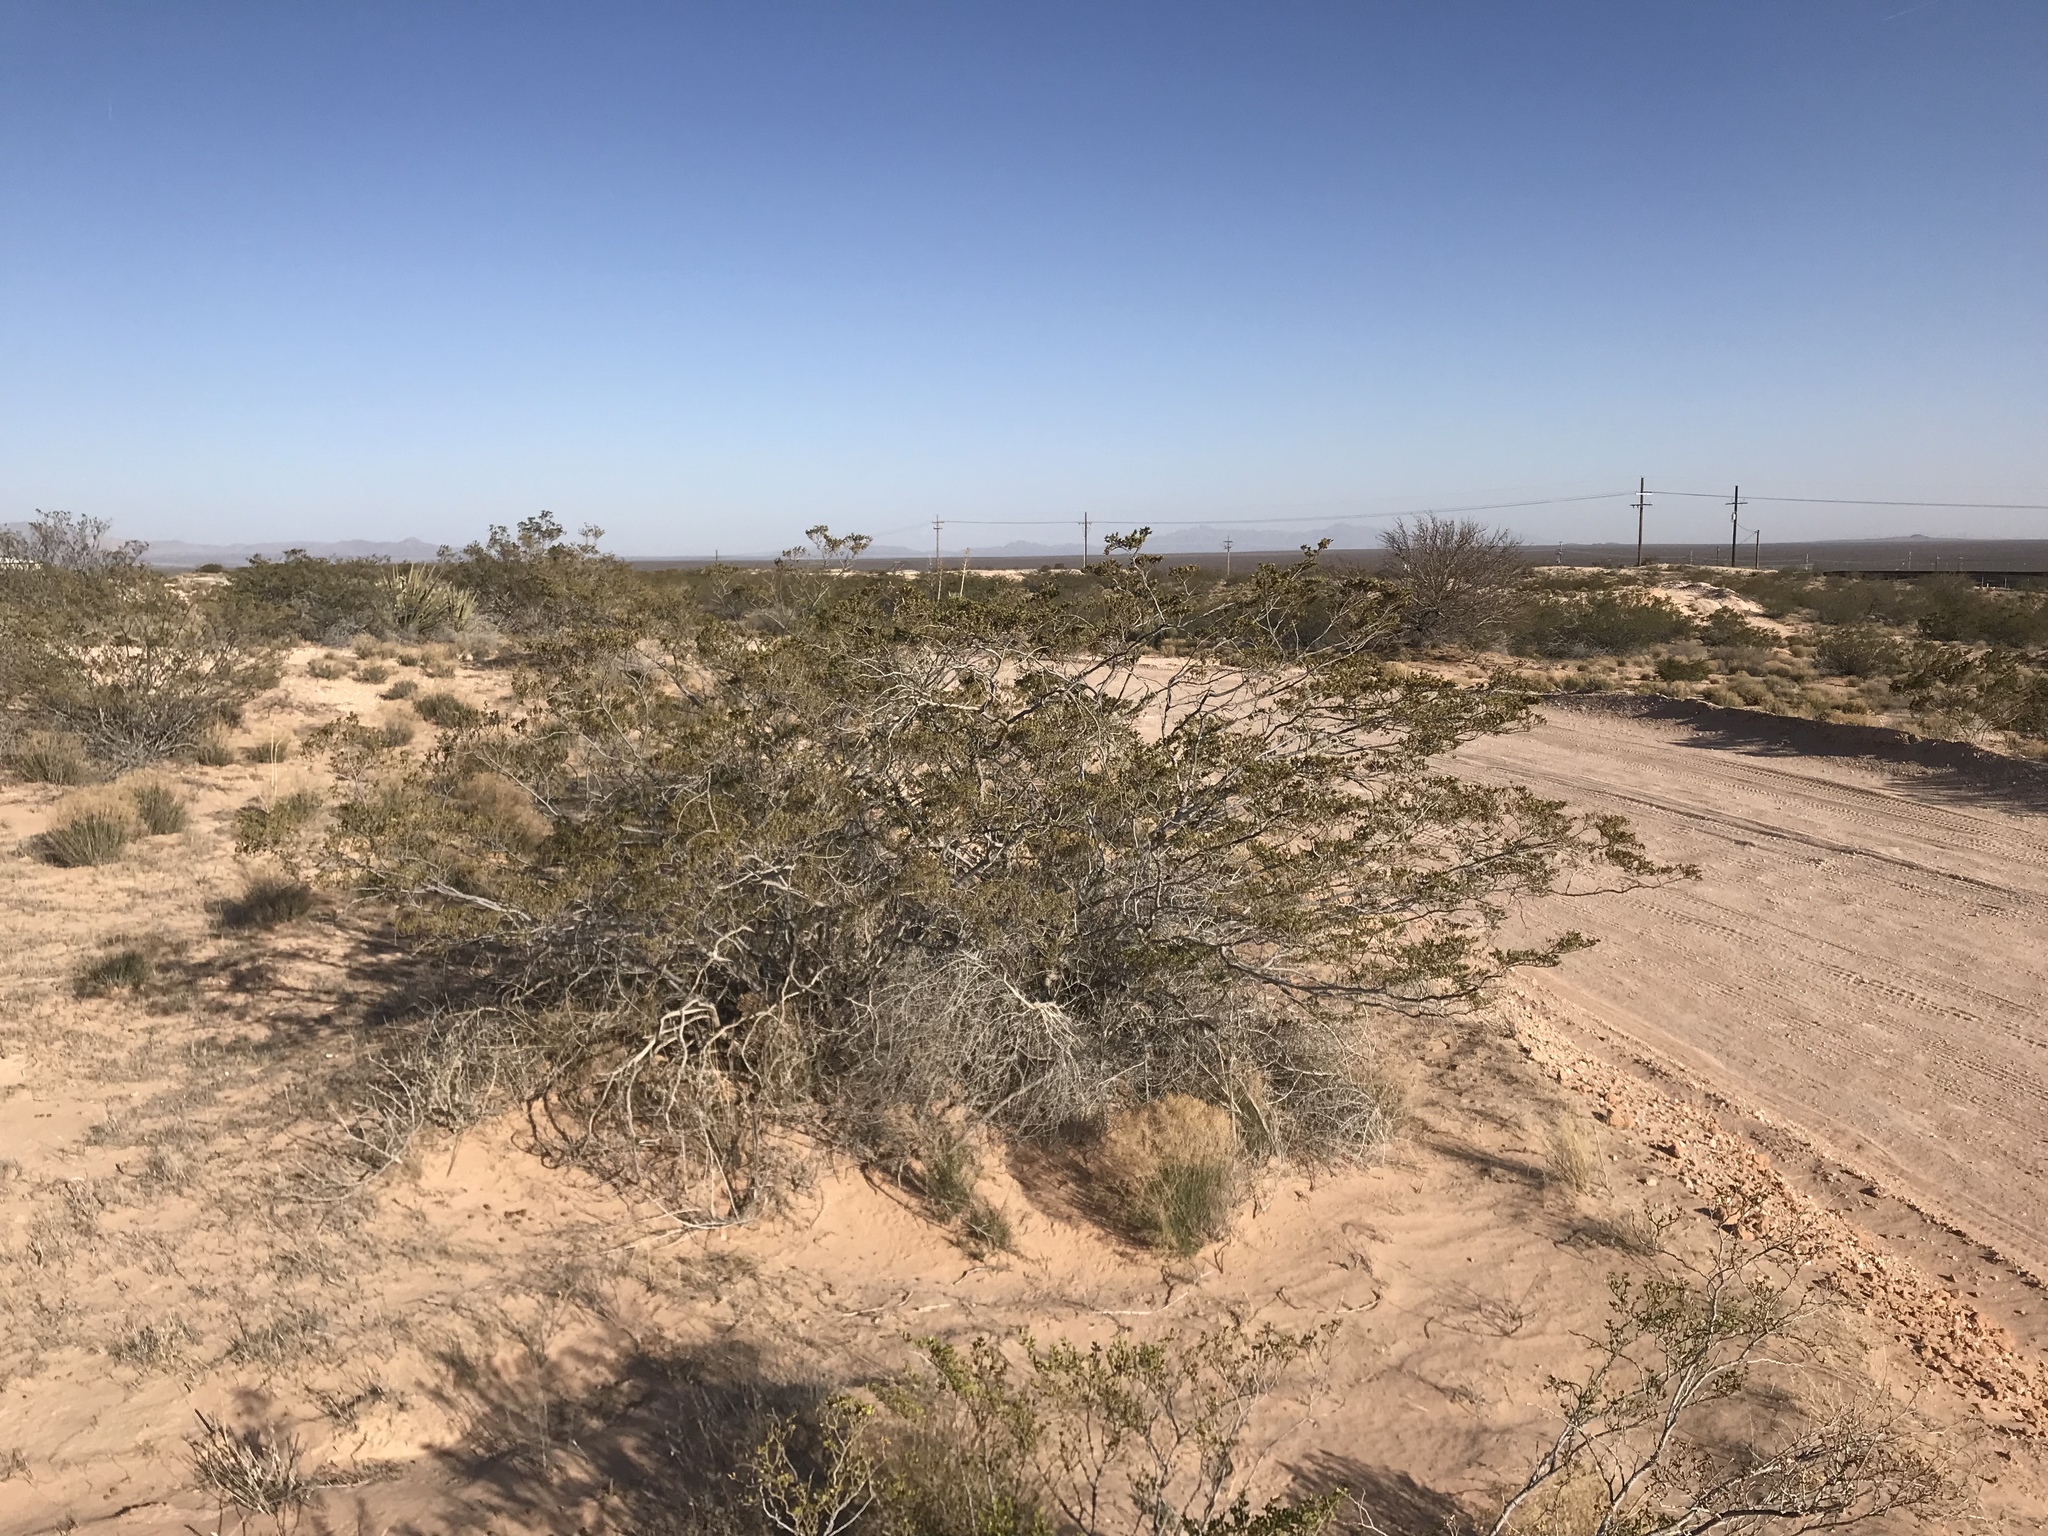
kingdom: Plantae
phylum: Tracheophyta
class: Magnoliopsida
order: Zygophyllales
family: Zygophyllaceae
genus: Larrea
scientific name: Larrea tridentata
